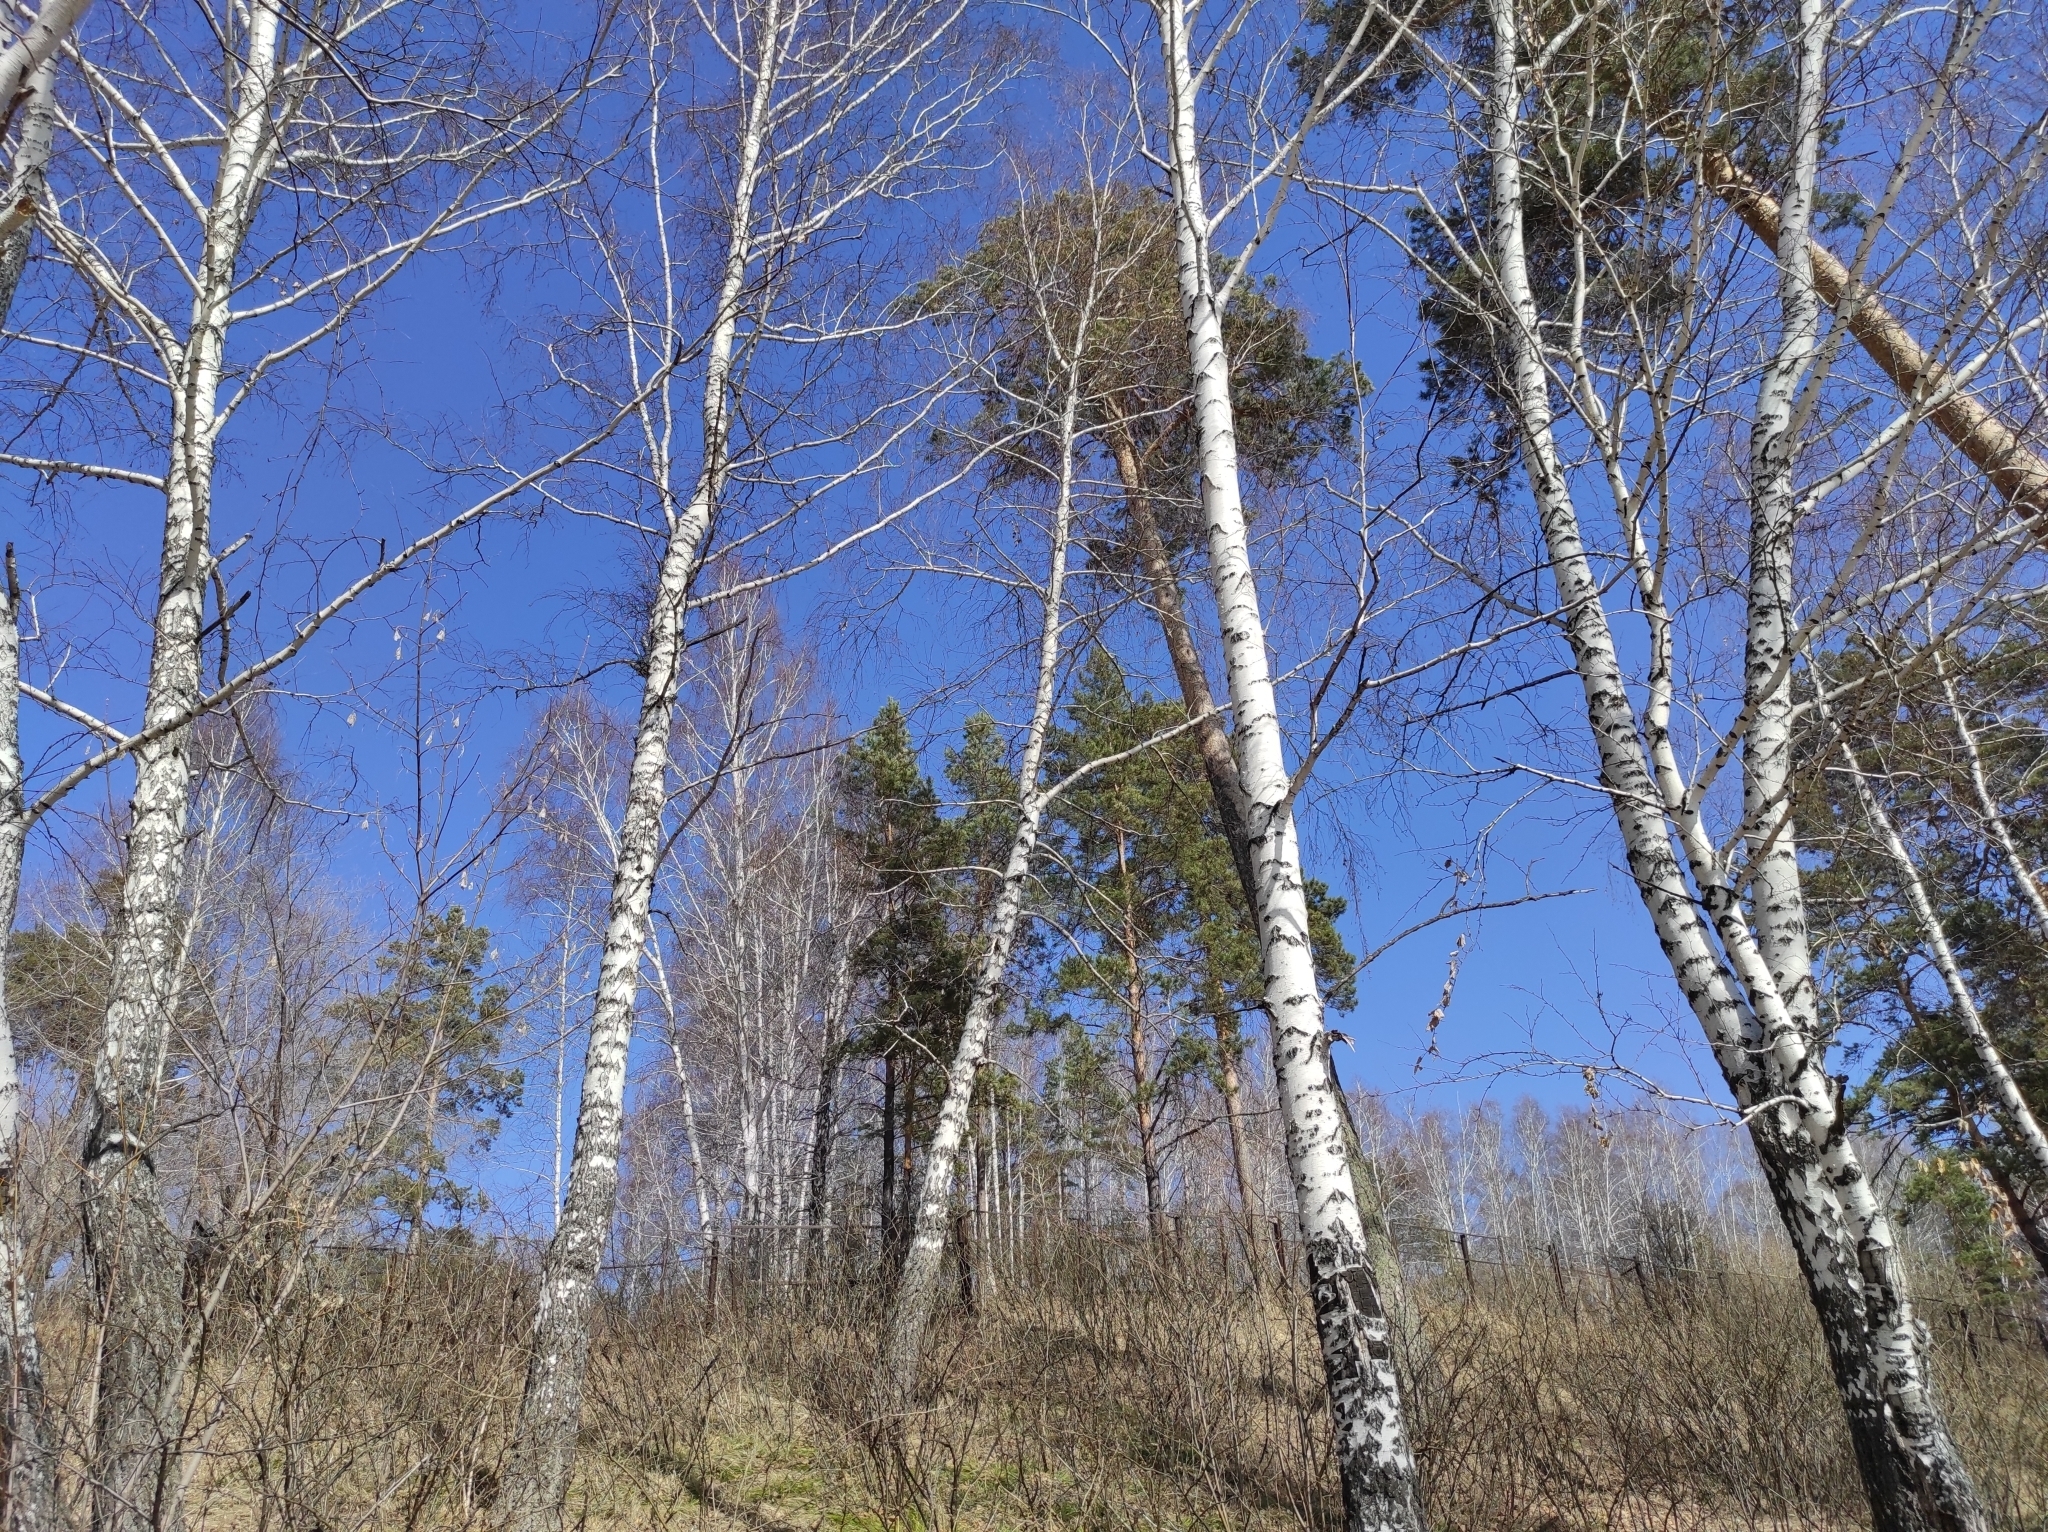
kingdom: Plantae
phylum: Tracheophyta
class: Pinopsida
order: Pinales
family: Pinaceae
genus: Pinus
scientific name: Pinus sylvestris
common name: Scots pine
